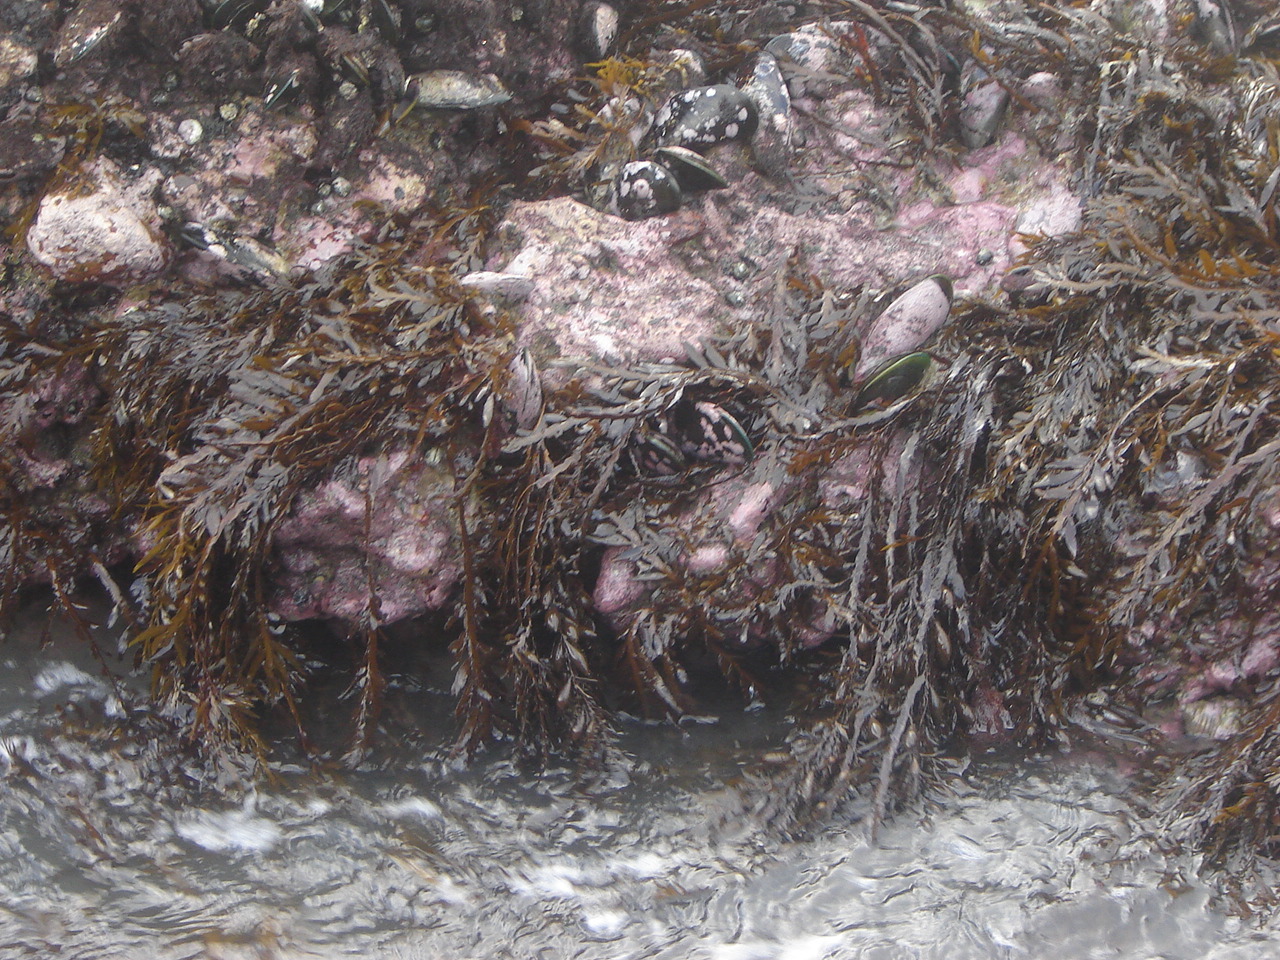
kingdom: Chromista
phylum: Ochrophyta
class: Phaeophyceae
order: Fucales
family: Sargassaceae
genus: Carpophyllum
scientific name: Carpophyllum maschalocarpum
